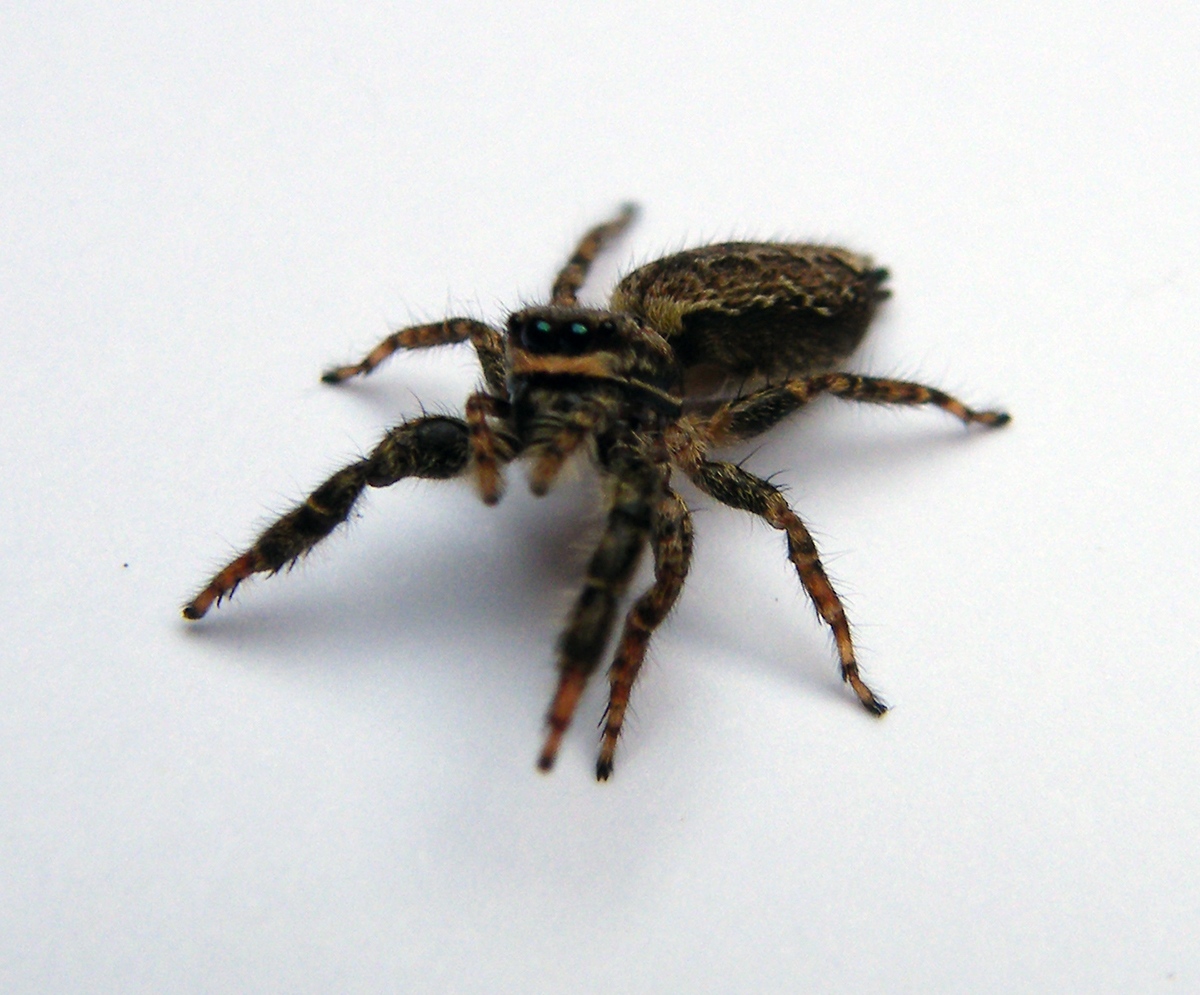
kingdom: Animalia
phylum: Arthropoda
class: Arachnida
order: Araneae
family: Salticidae
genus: Marpissa
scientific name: Marpissa muscosa
